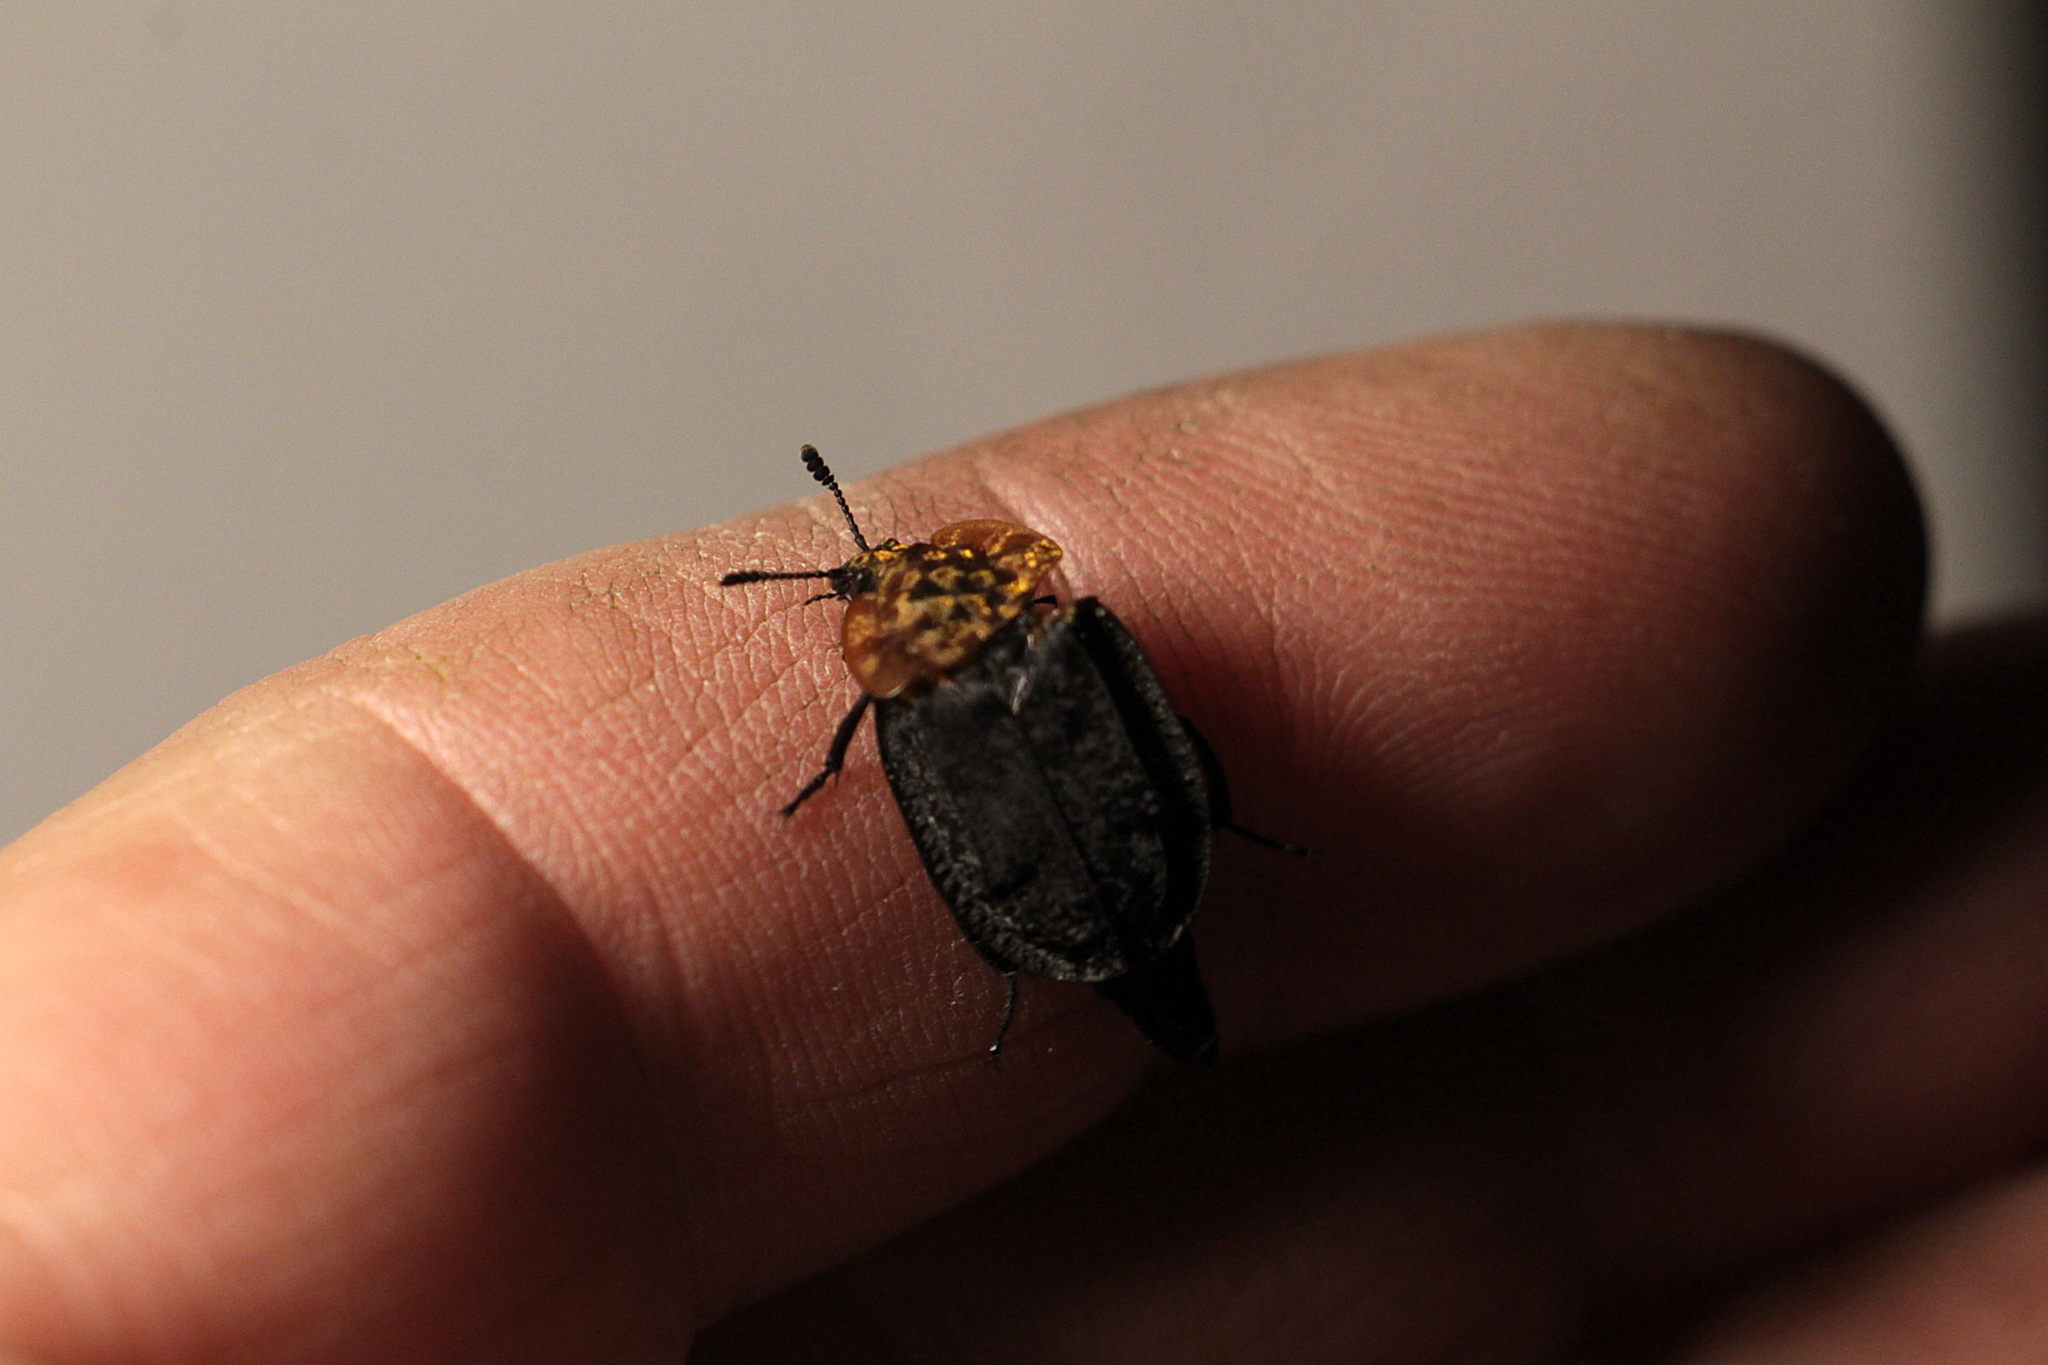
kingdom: Animalia
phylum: Arthropoda
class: Insecta
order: Coleoptera
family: Staphylinidae
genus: Oiceoptoma
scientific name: Oiceoptoma thoracicum
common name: Red-breasted carrion beetle
